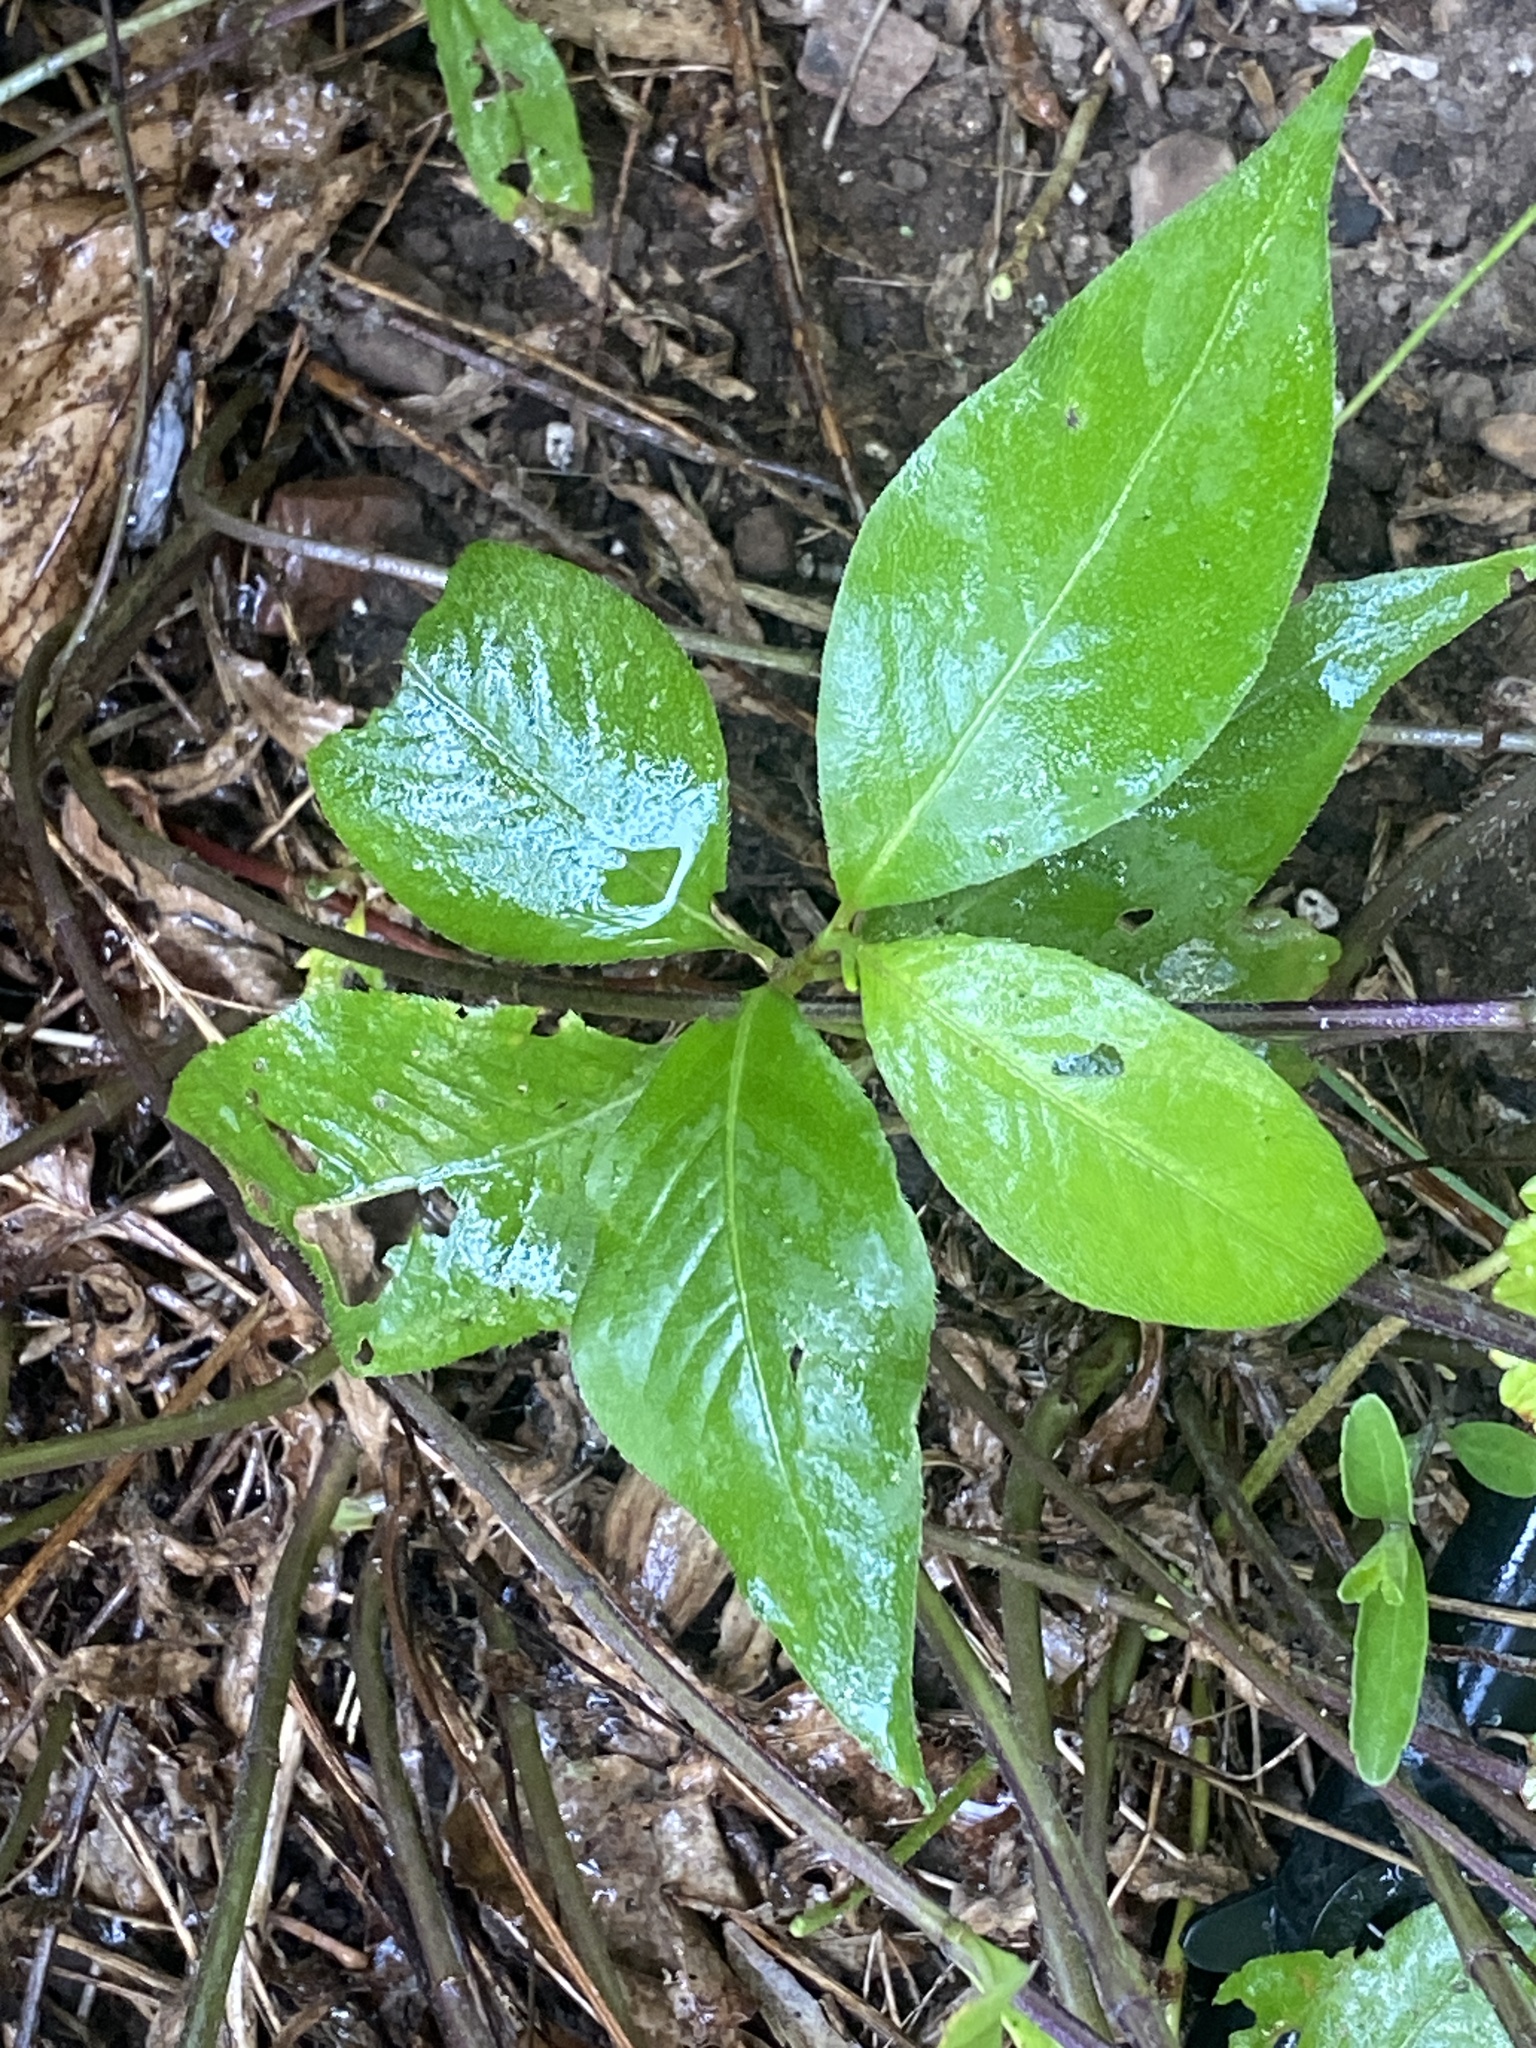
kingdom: Plantae
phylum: Tracheophyta
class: Magnoliopsida
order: Caryophyllales
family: Polygonaceae
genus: Persicaria
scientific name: Persicaria virginiana
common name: Jumpseed
